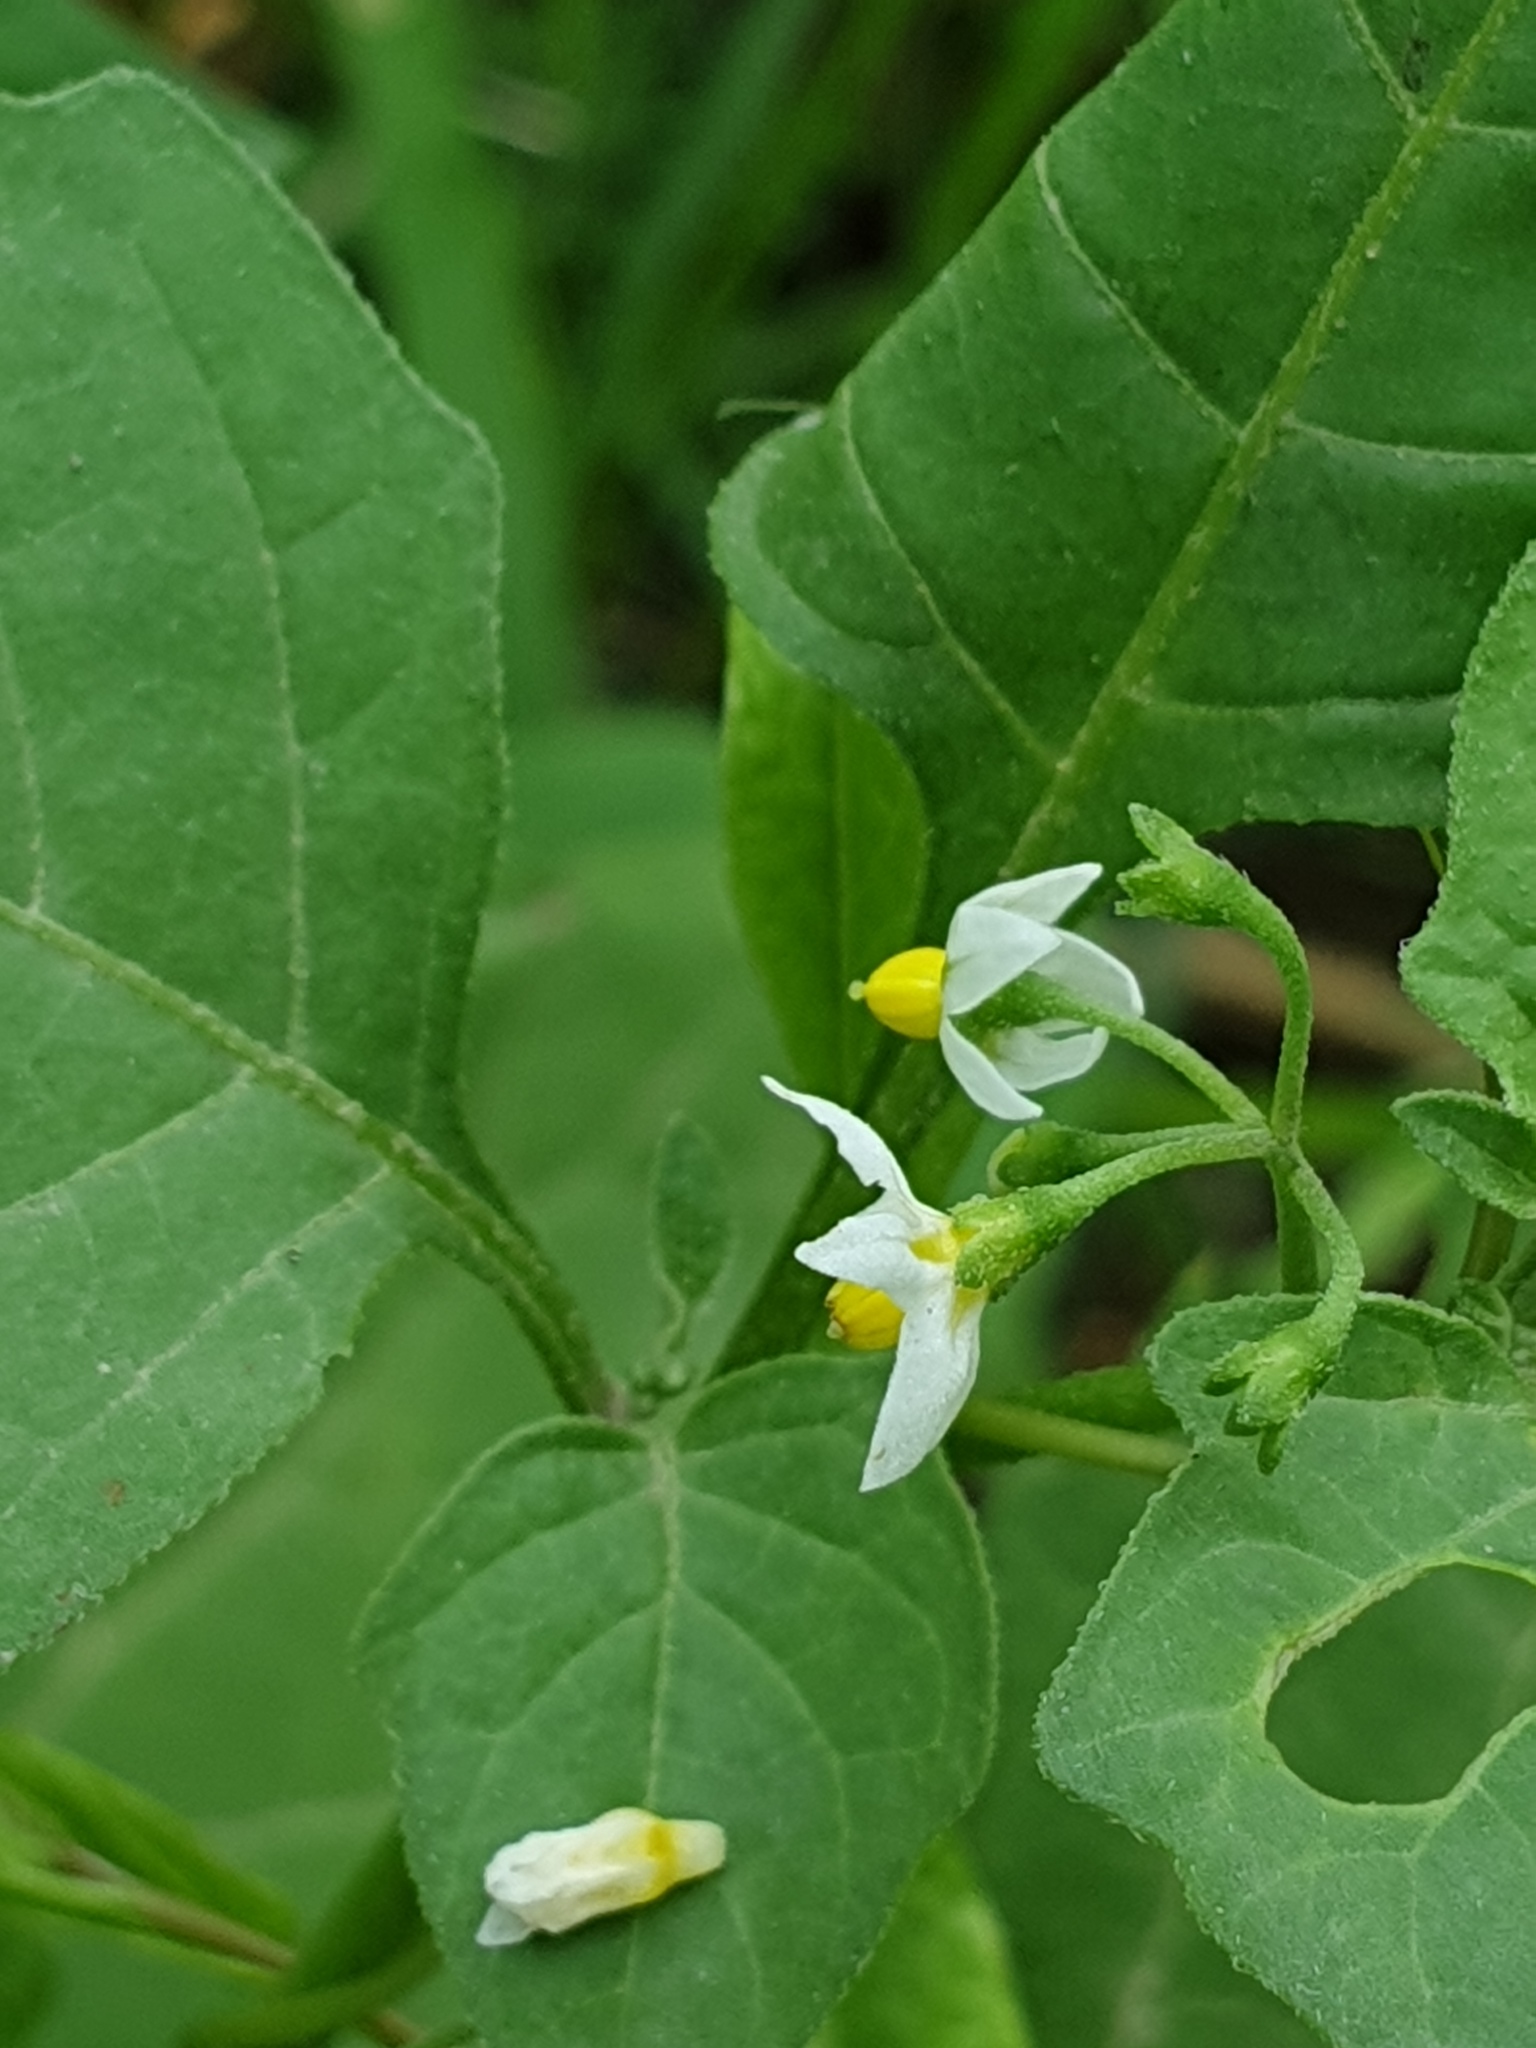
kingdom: Plantae
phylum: Tracheophyta
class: Magnoliopsida
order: Solanales
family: Solanaceae
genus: Solanum
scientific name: Solanum nigrum
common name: Black nightshade
